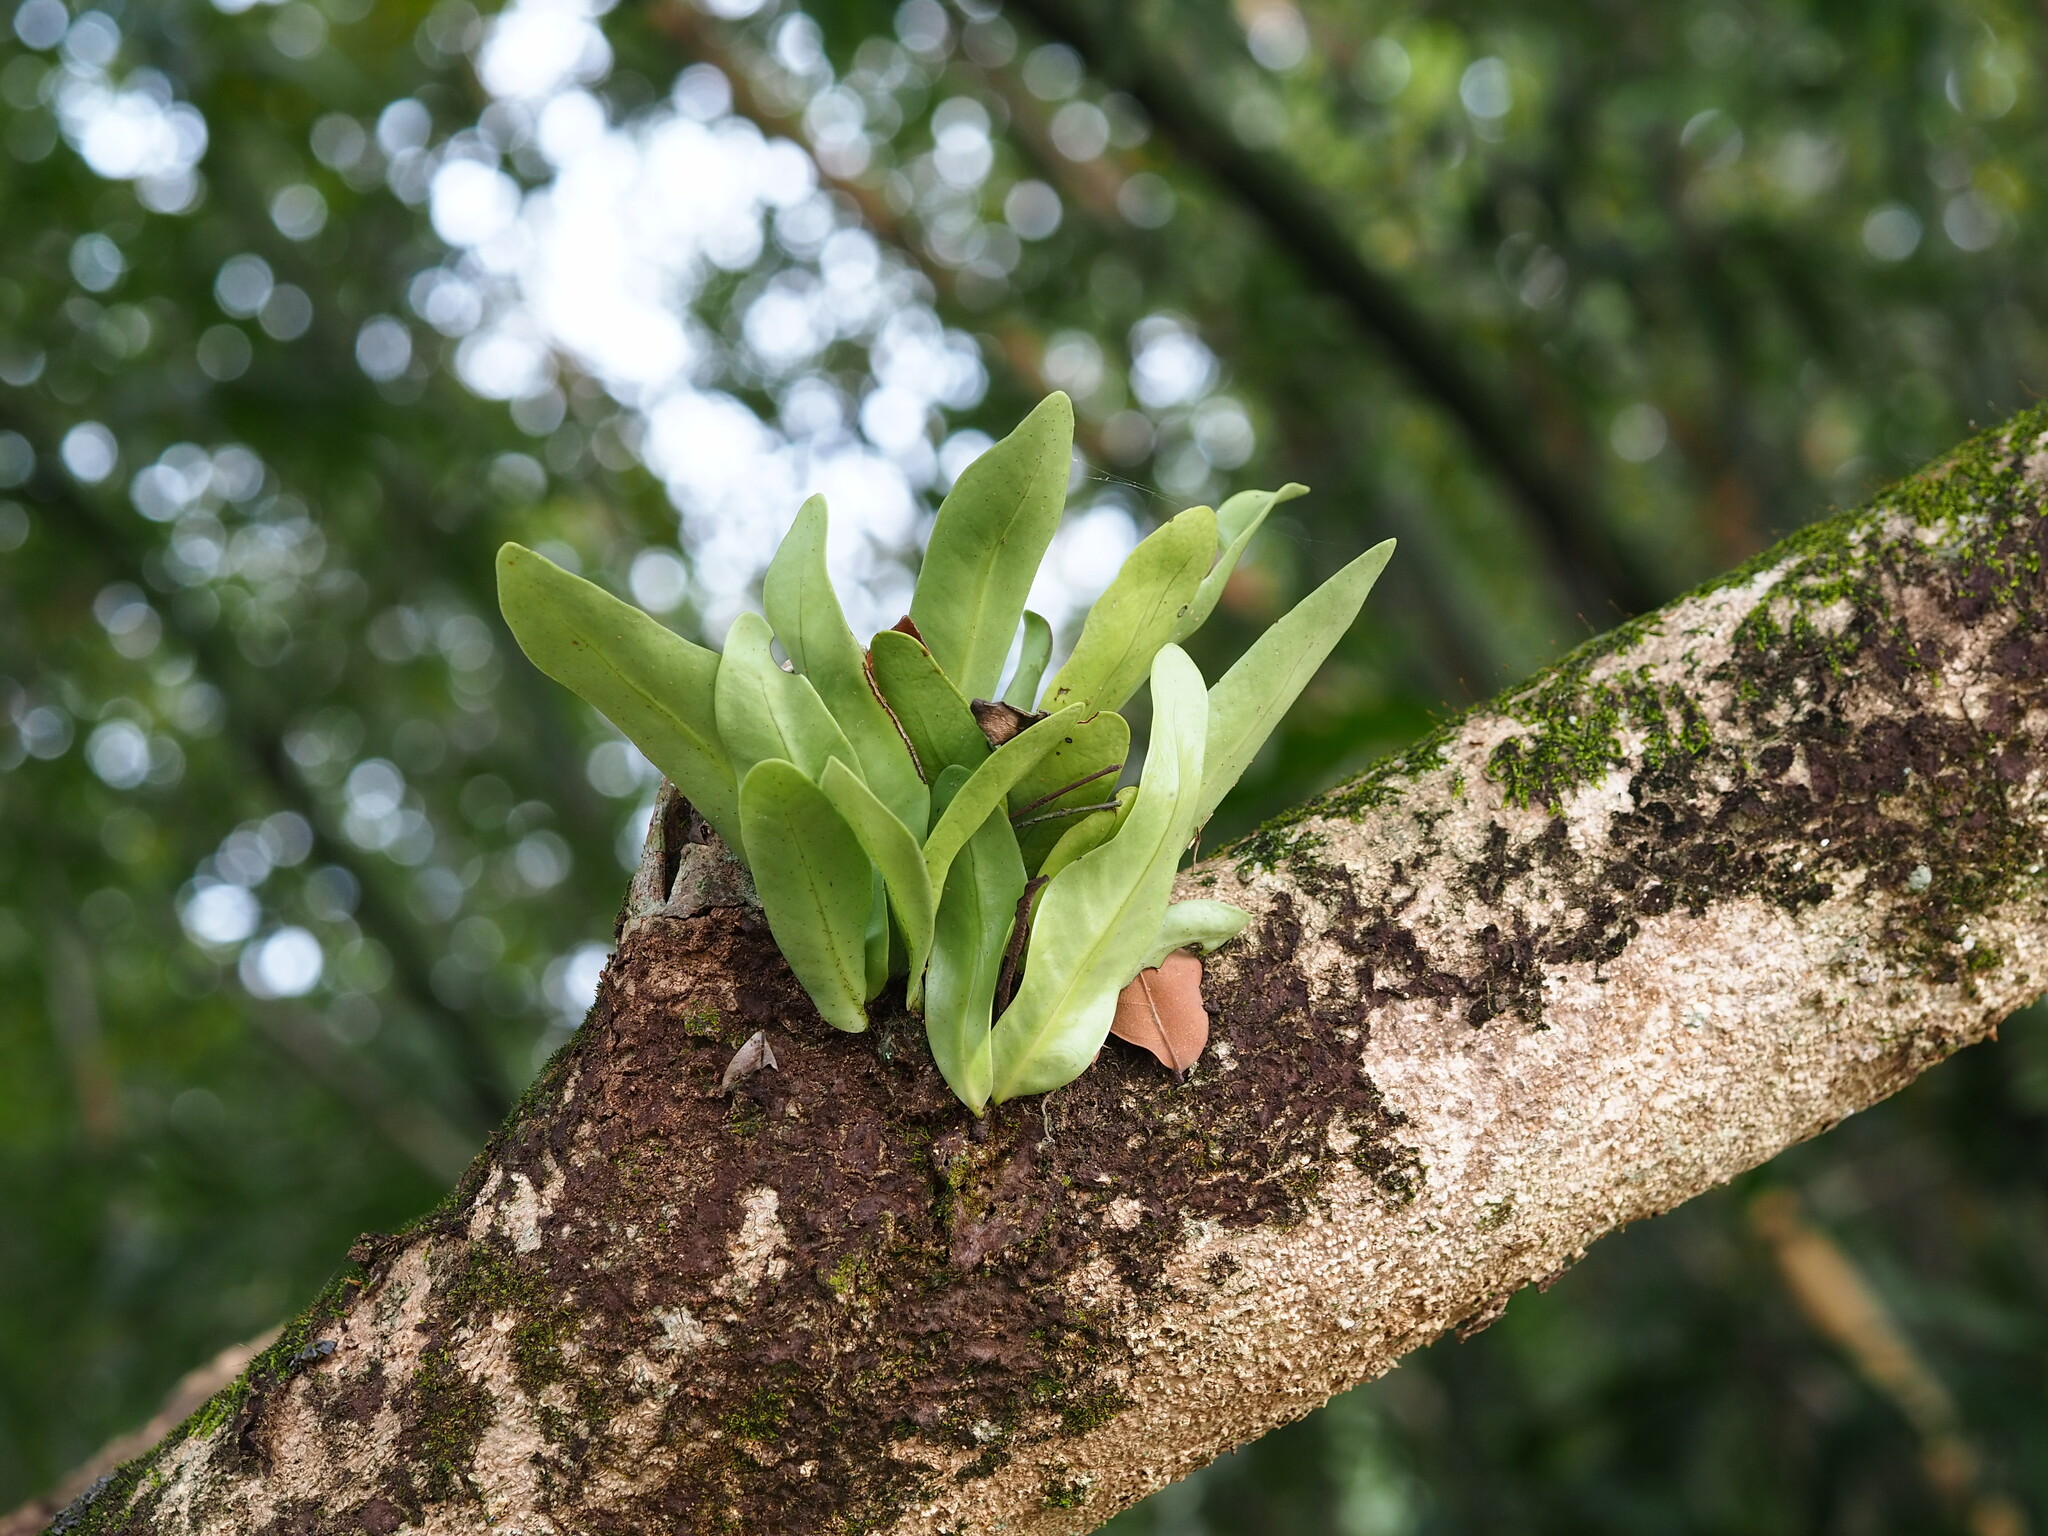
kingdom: Plantae
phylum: Tracheophyta
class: Polypodiopsida
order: Polypodiales
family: Polypodiaceae
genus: Microsorum
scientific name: Microsorum punctatum
